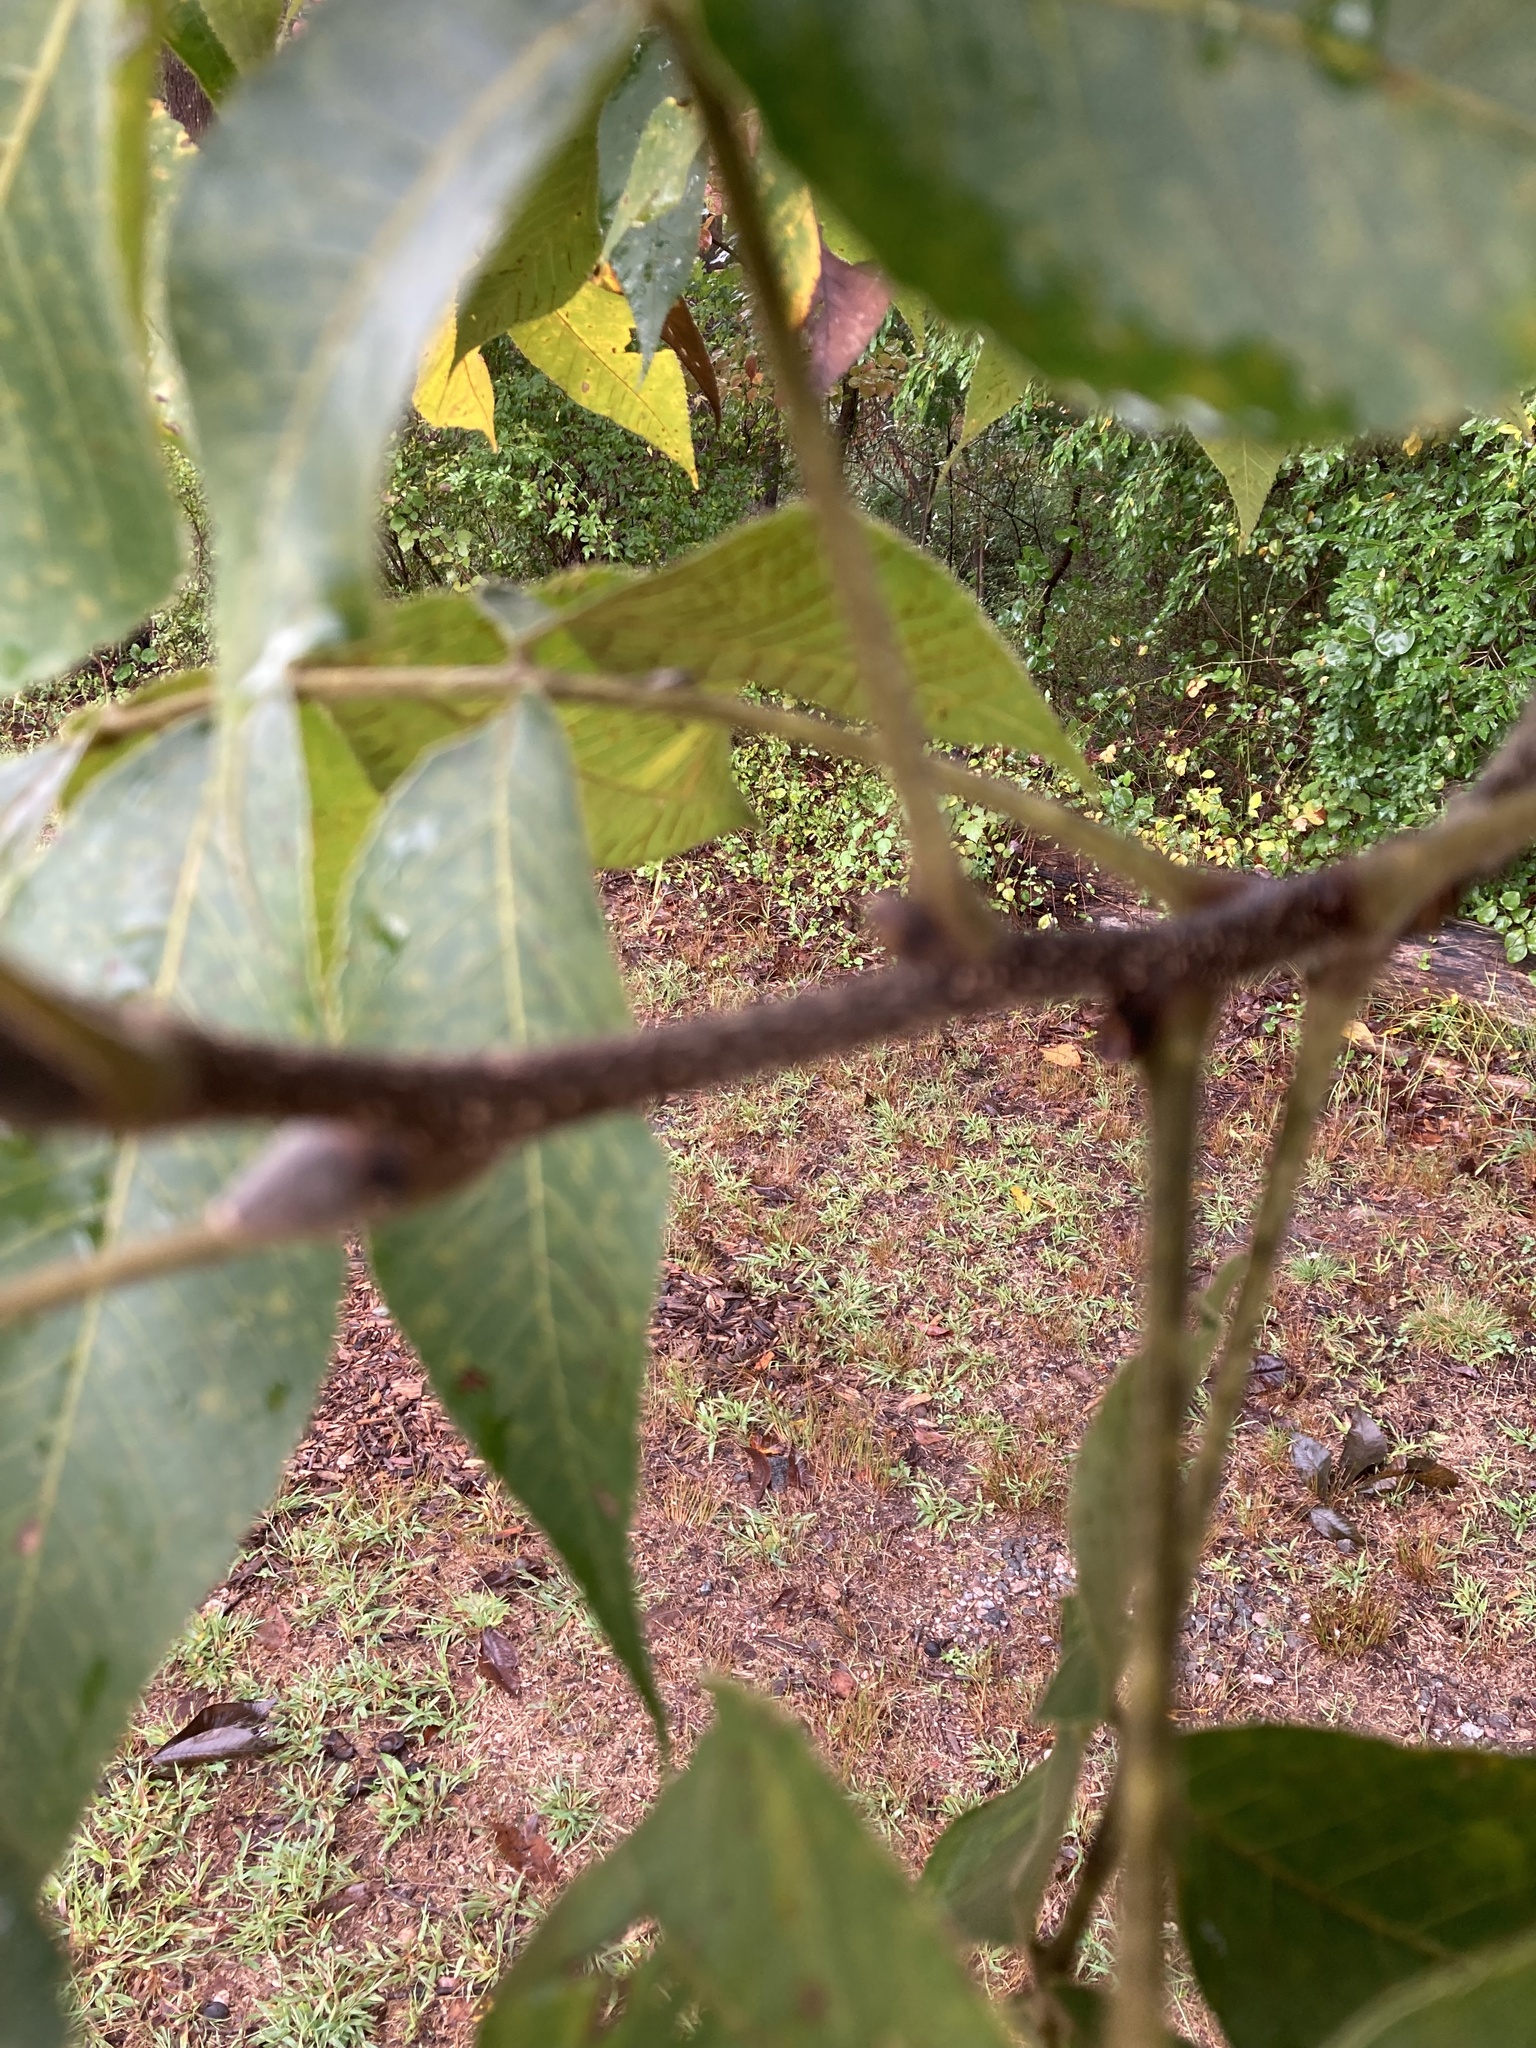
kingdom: Plantae
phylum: Tracheophyta
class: Magnoliopsida
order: Fagales
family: Juglandaceae
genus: Carya
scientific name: Carya ovata
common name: Shagbark hickory
